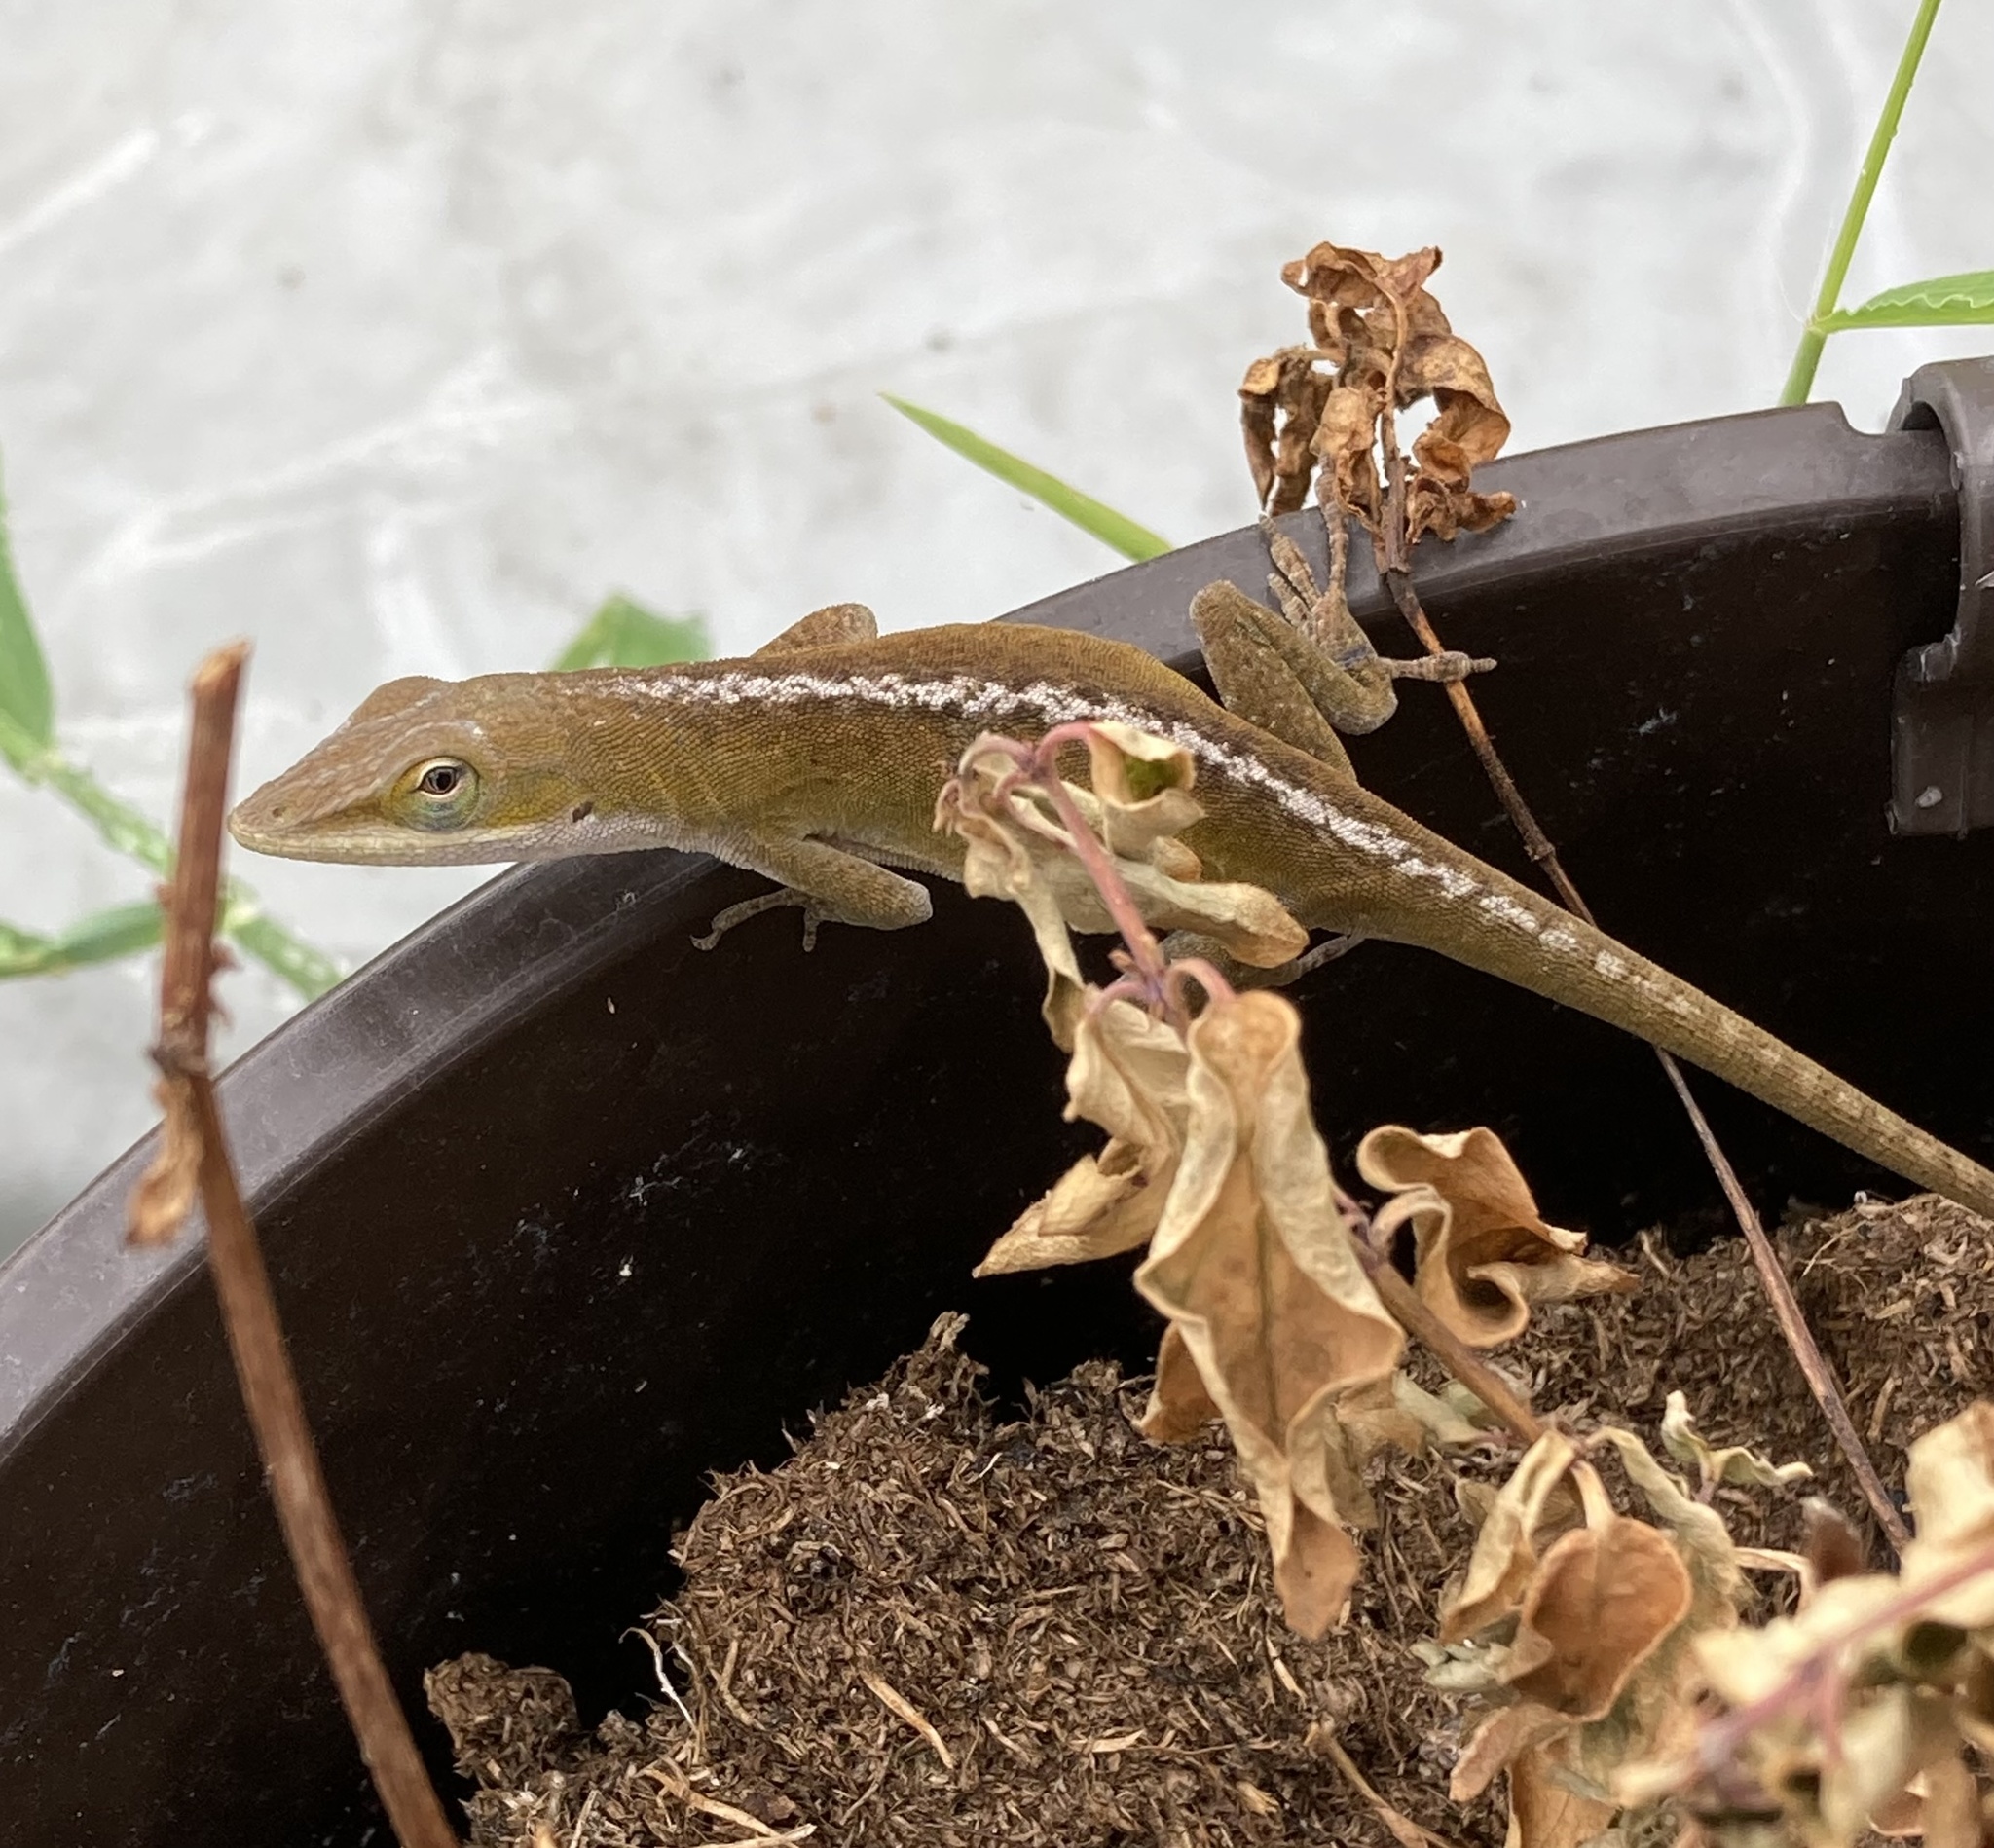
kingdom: Animalia
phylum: Chordata
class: Squamata
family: Dactyloidae
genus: Anolis
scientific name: Anolis carolinensis
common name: Green anole
